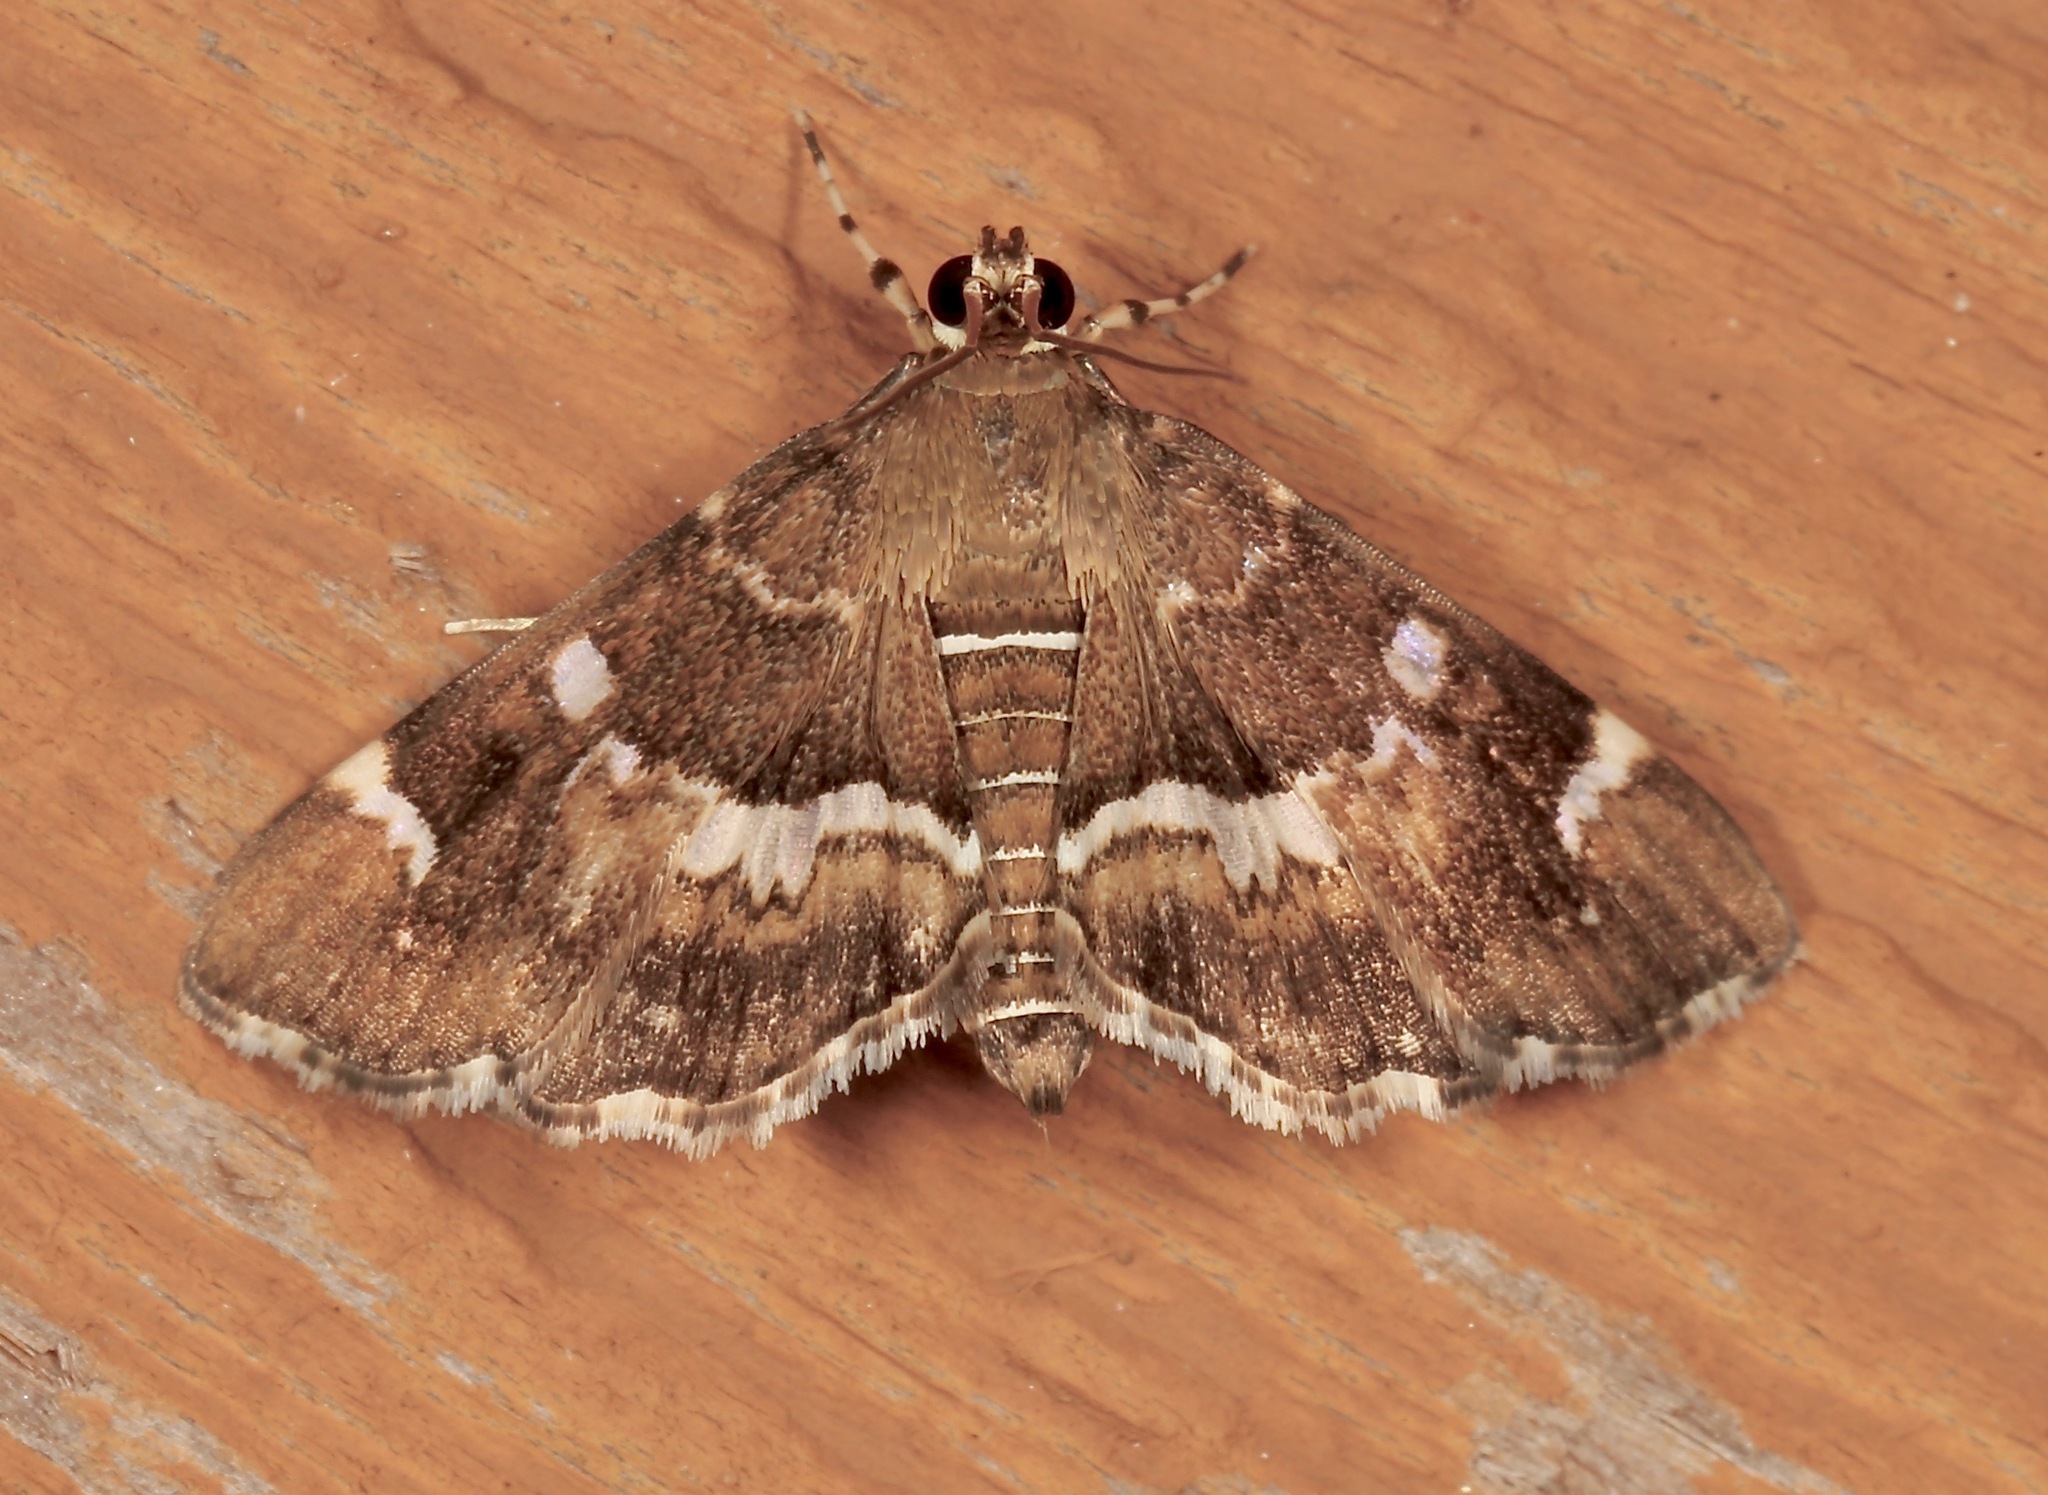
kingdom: Animalia
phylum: Arthropoda
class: Insecta
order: Lepidoptera
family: Crambidae
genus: Hymenia
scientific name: Hymenia perspectalis
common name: Spotted beet webworm
